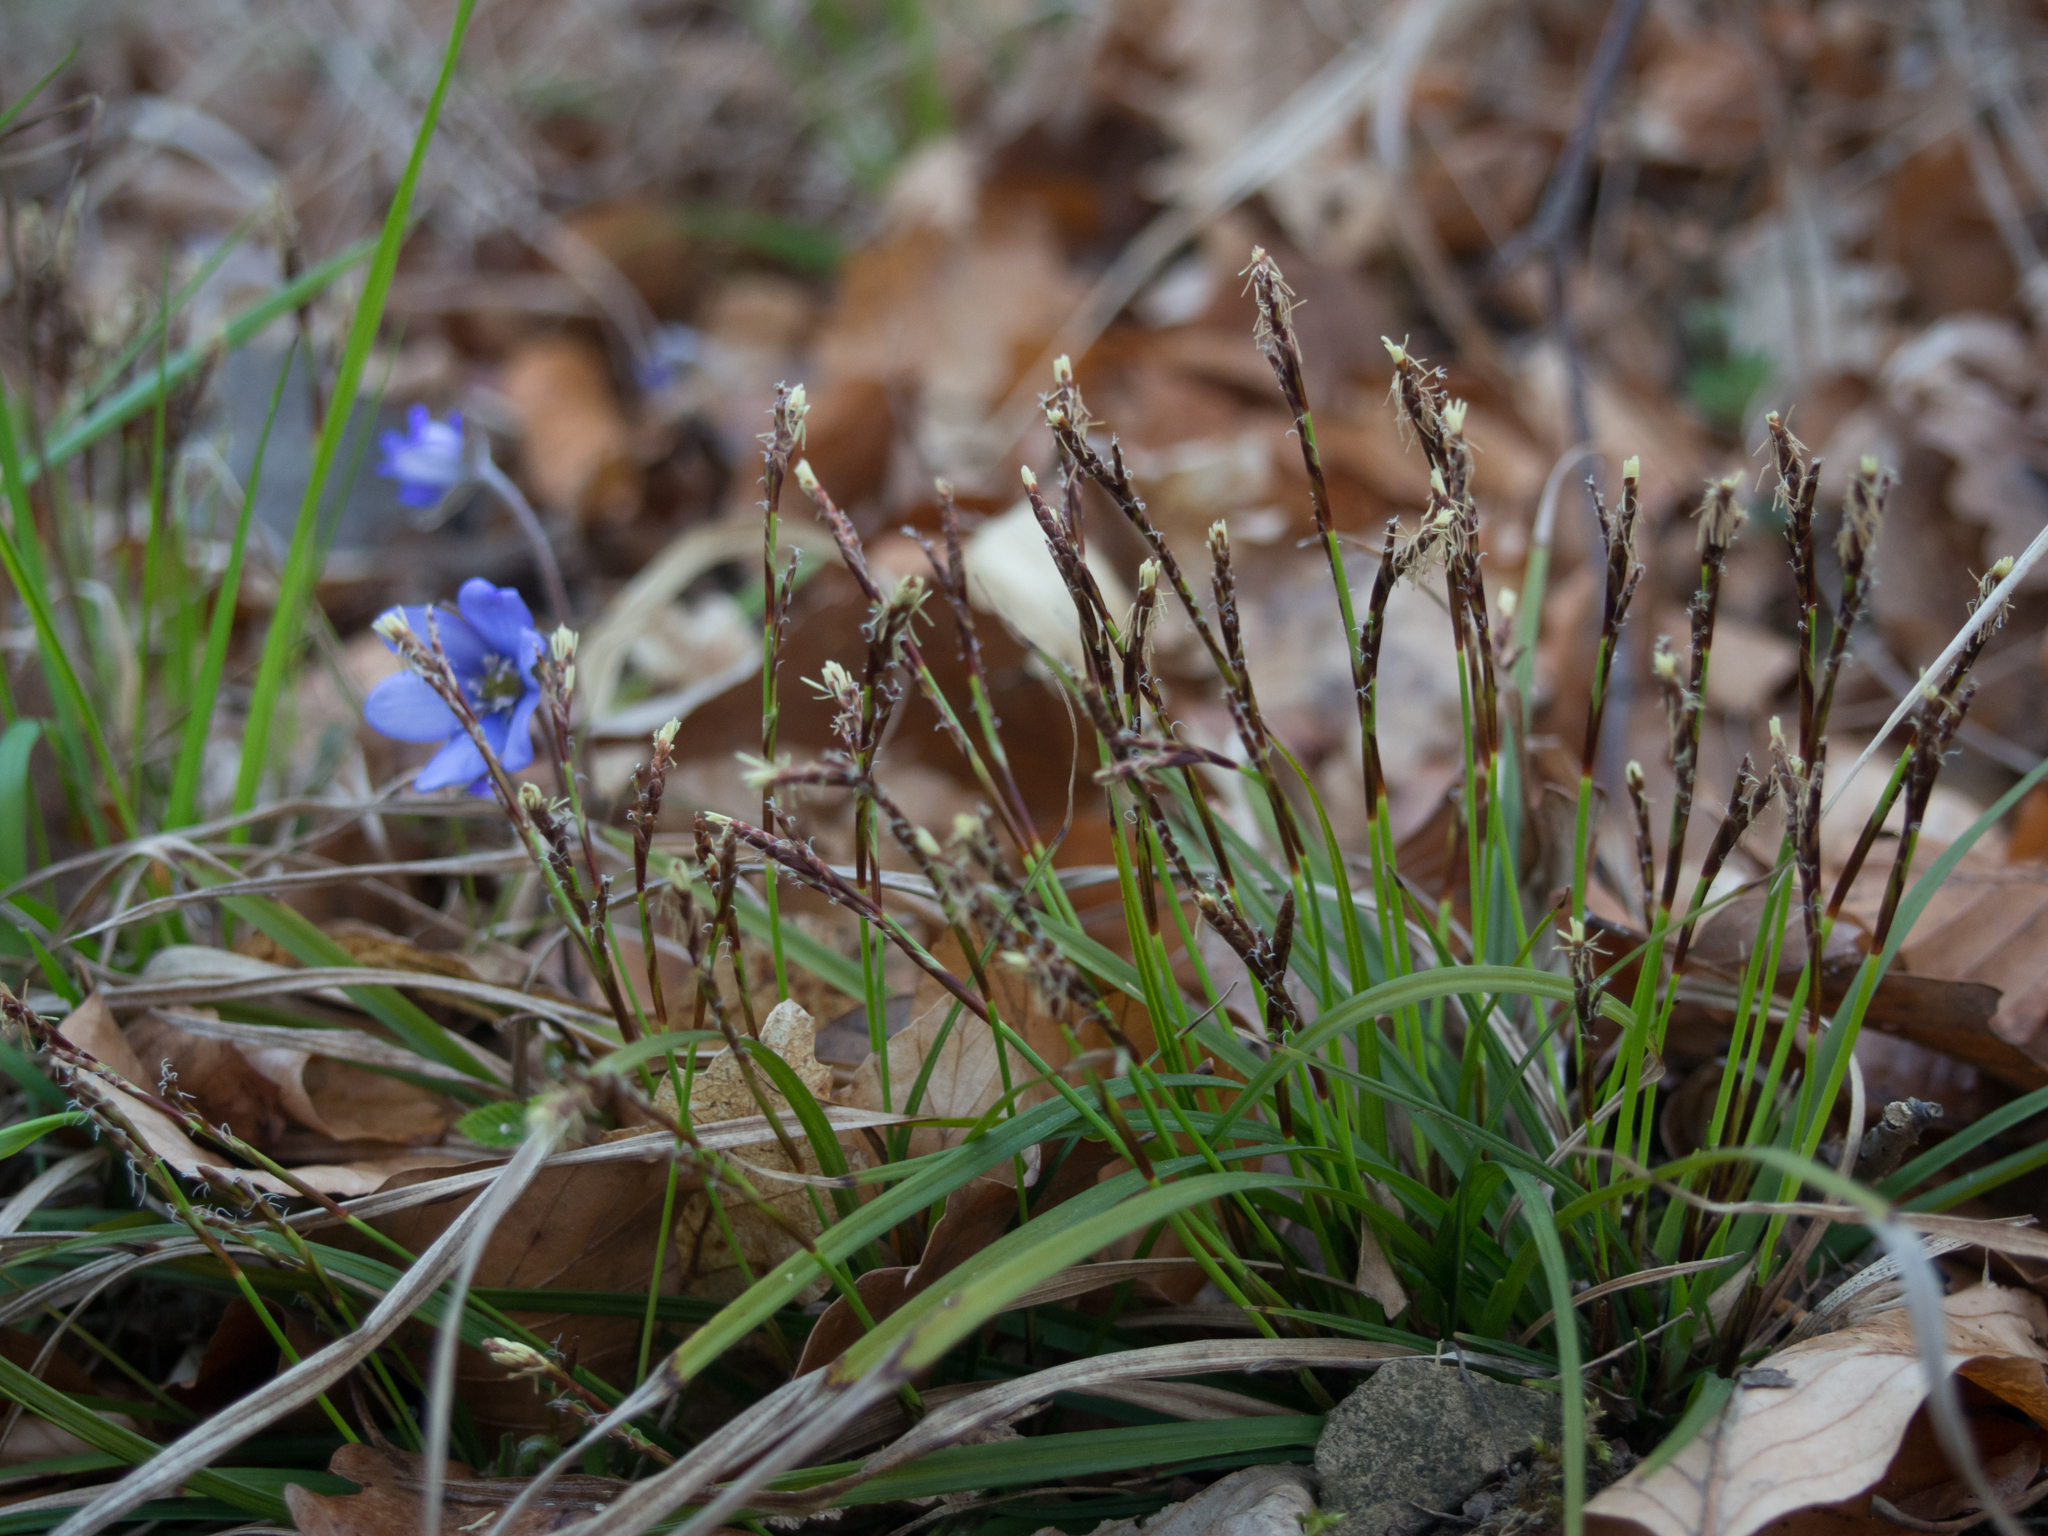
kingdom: Plantae
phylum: Tracheophyta
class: Liliopsida
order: Poales
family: Cyperaceae
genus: Carex
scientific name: Carex digitata
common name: Fingered sedge
